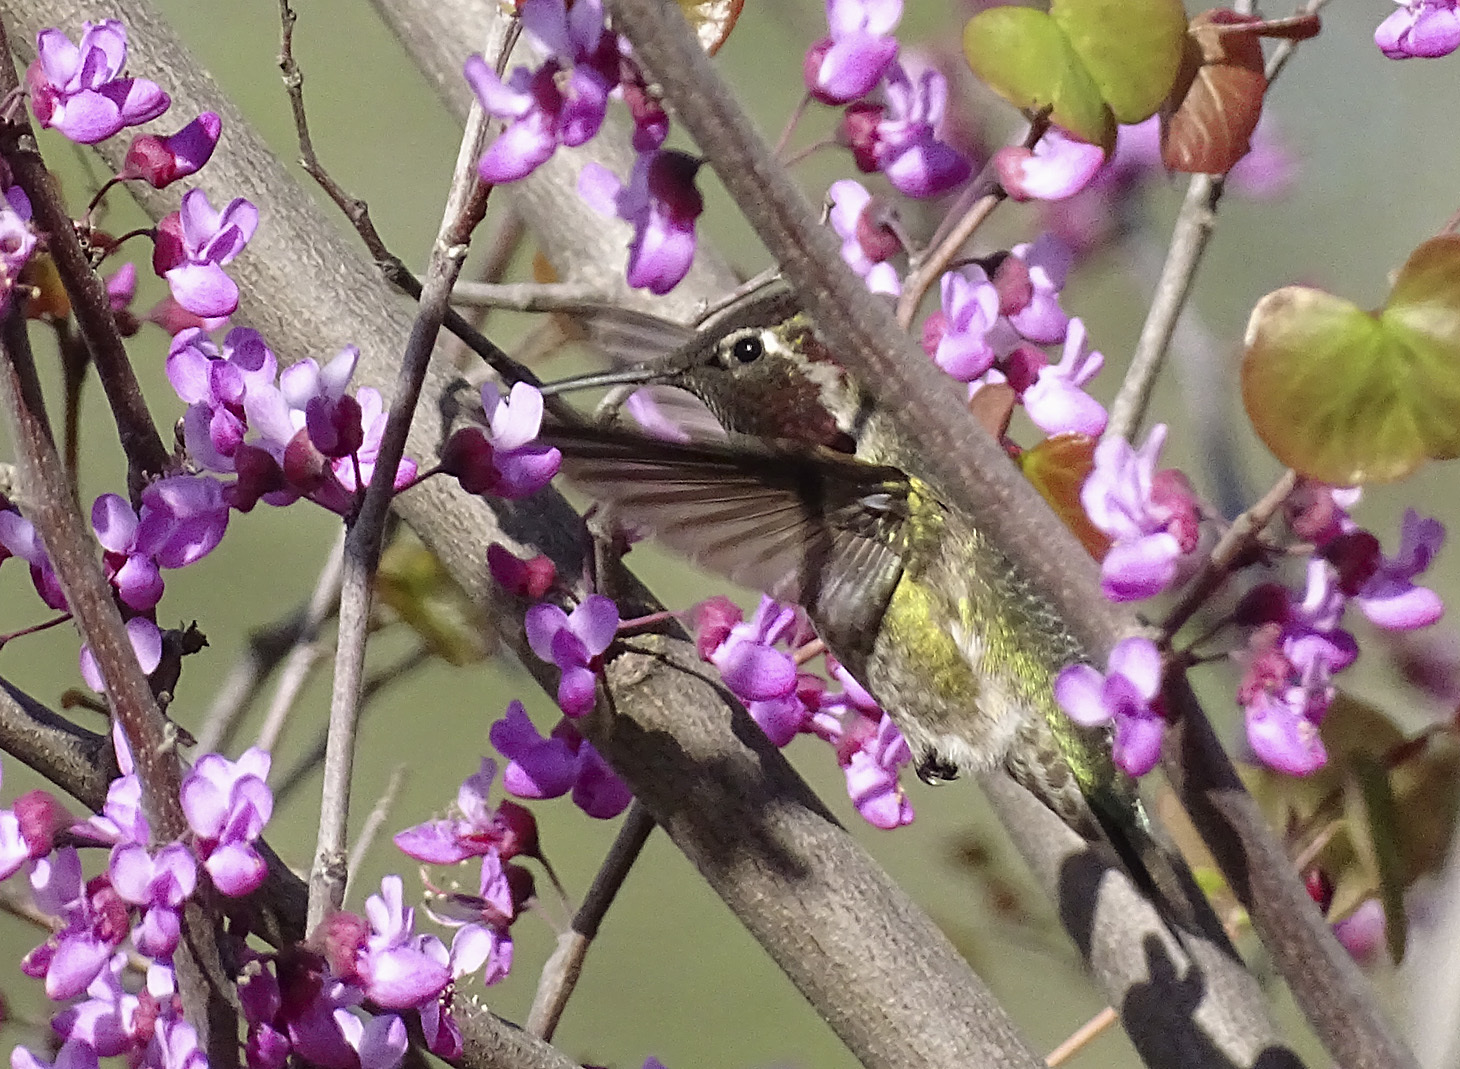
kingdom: Animalia
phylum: Chordata
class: Aves
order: Apodiformes
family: Trochilidae
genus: Calypte
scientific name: Calypte anna
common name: Anna's hummingbird
